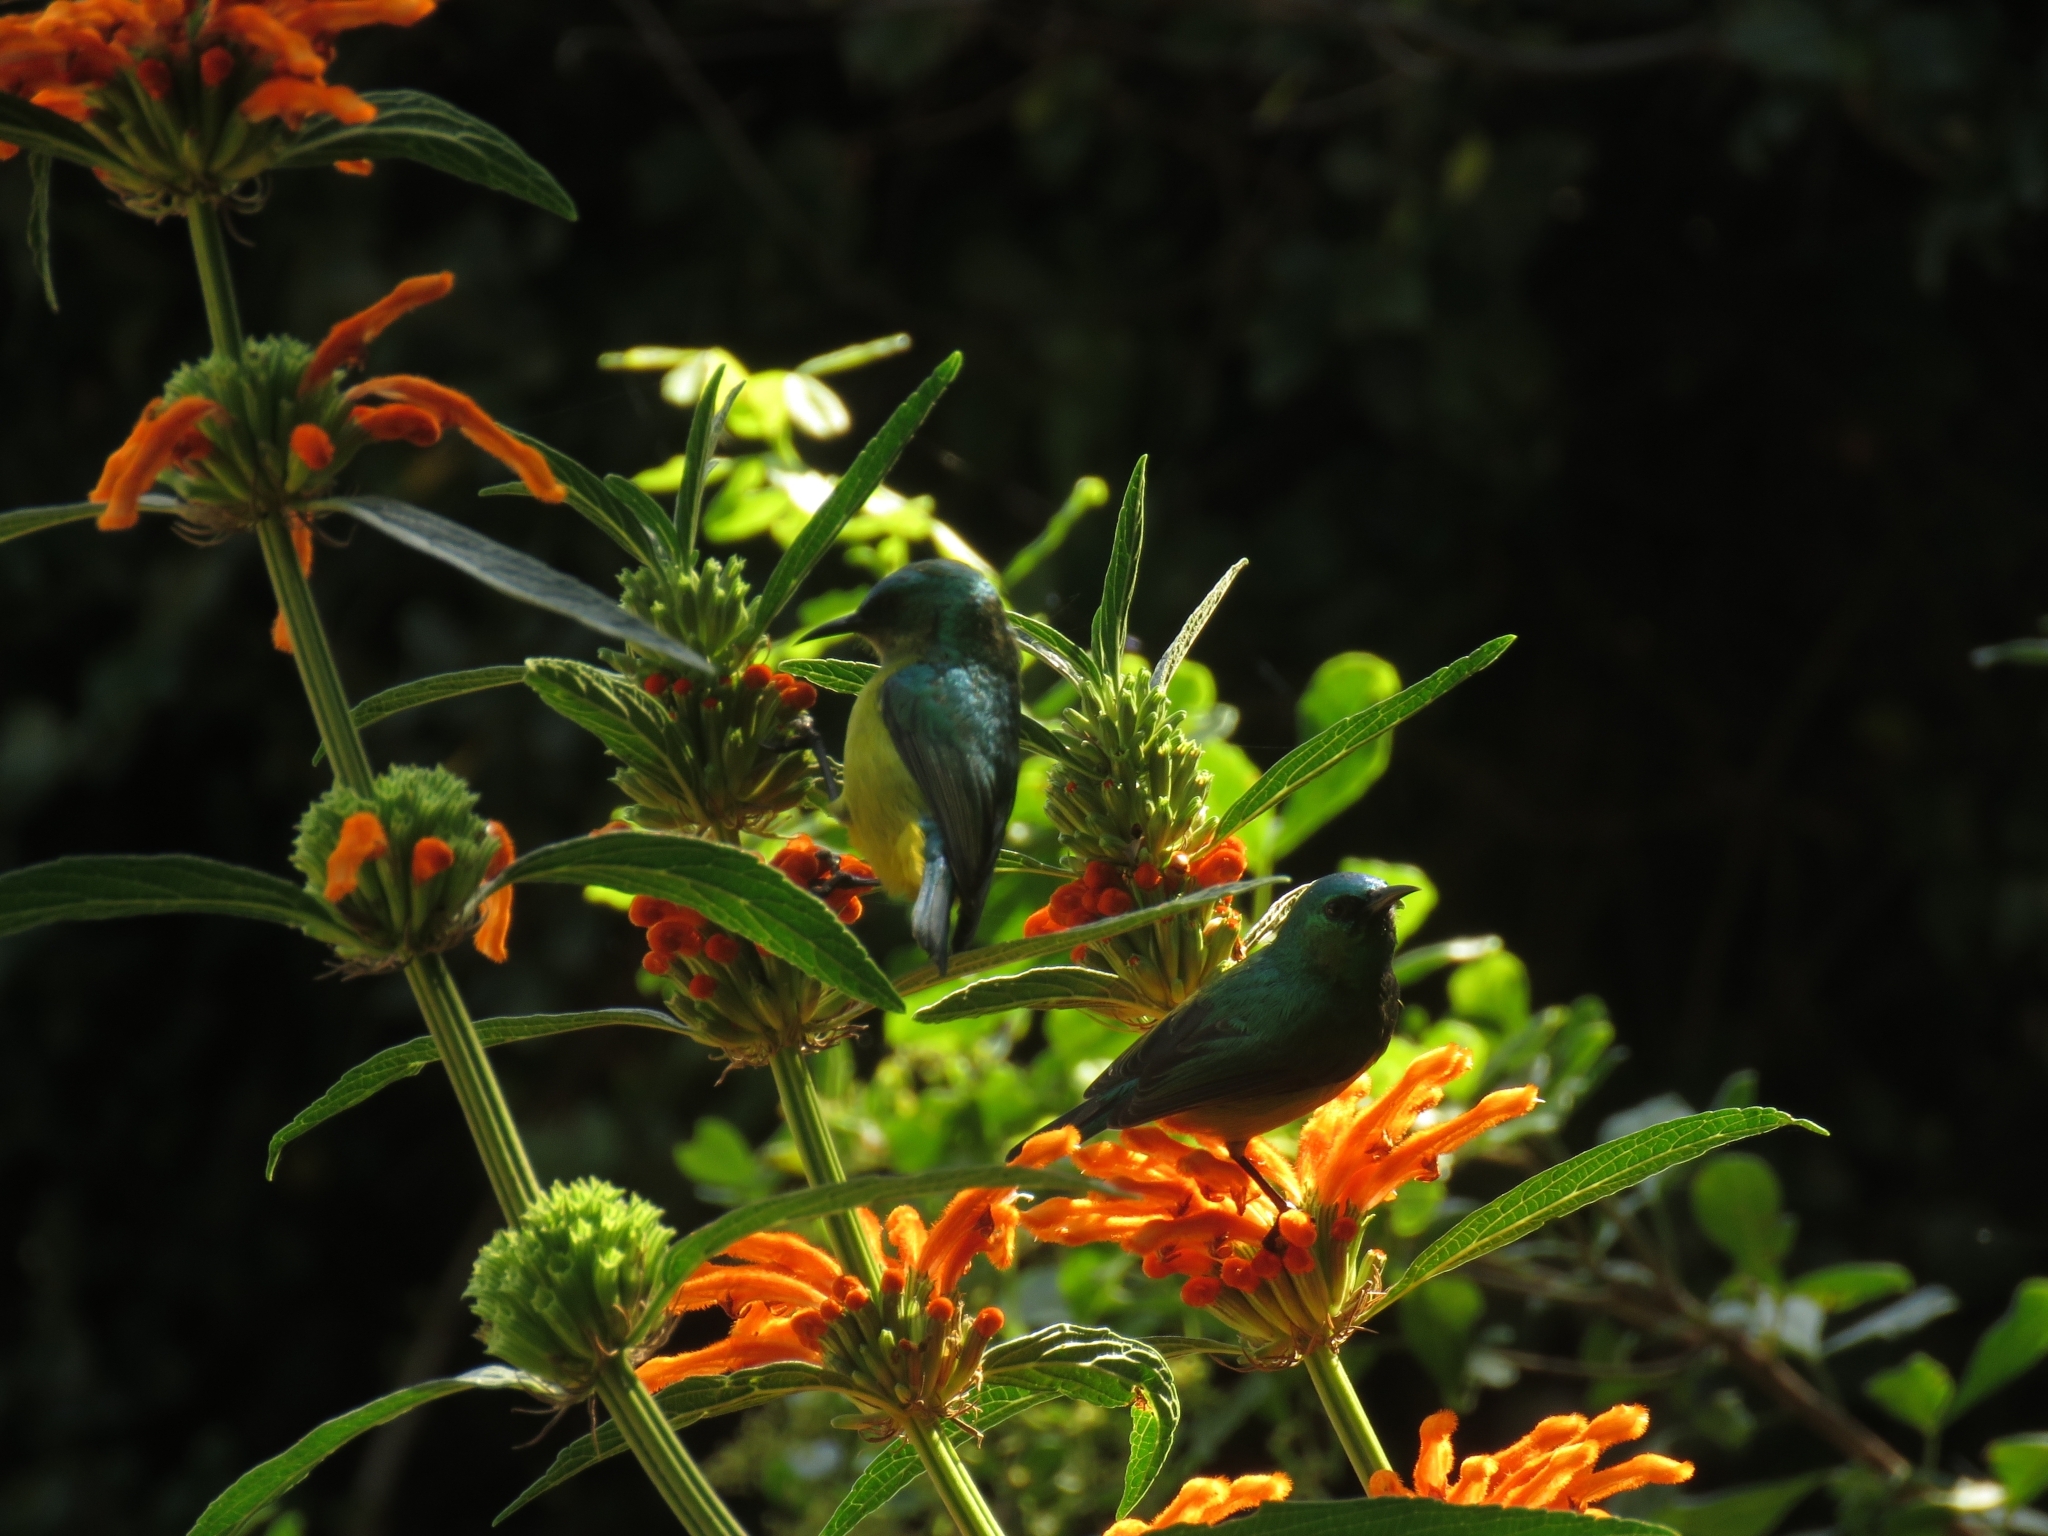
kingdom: Animalia
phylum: Chordata
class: Aves
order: Passeriformes
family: Nectariniidae
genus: Hedydipna
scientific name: Hedydipna collaris
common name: Collared sunbird
